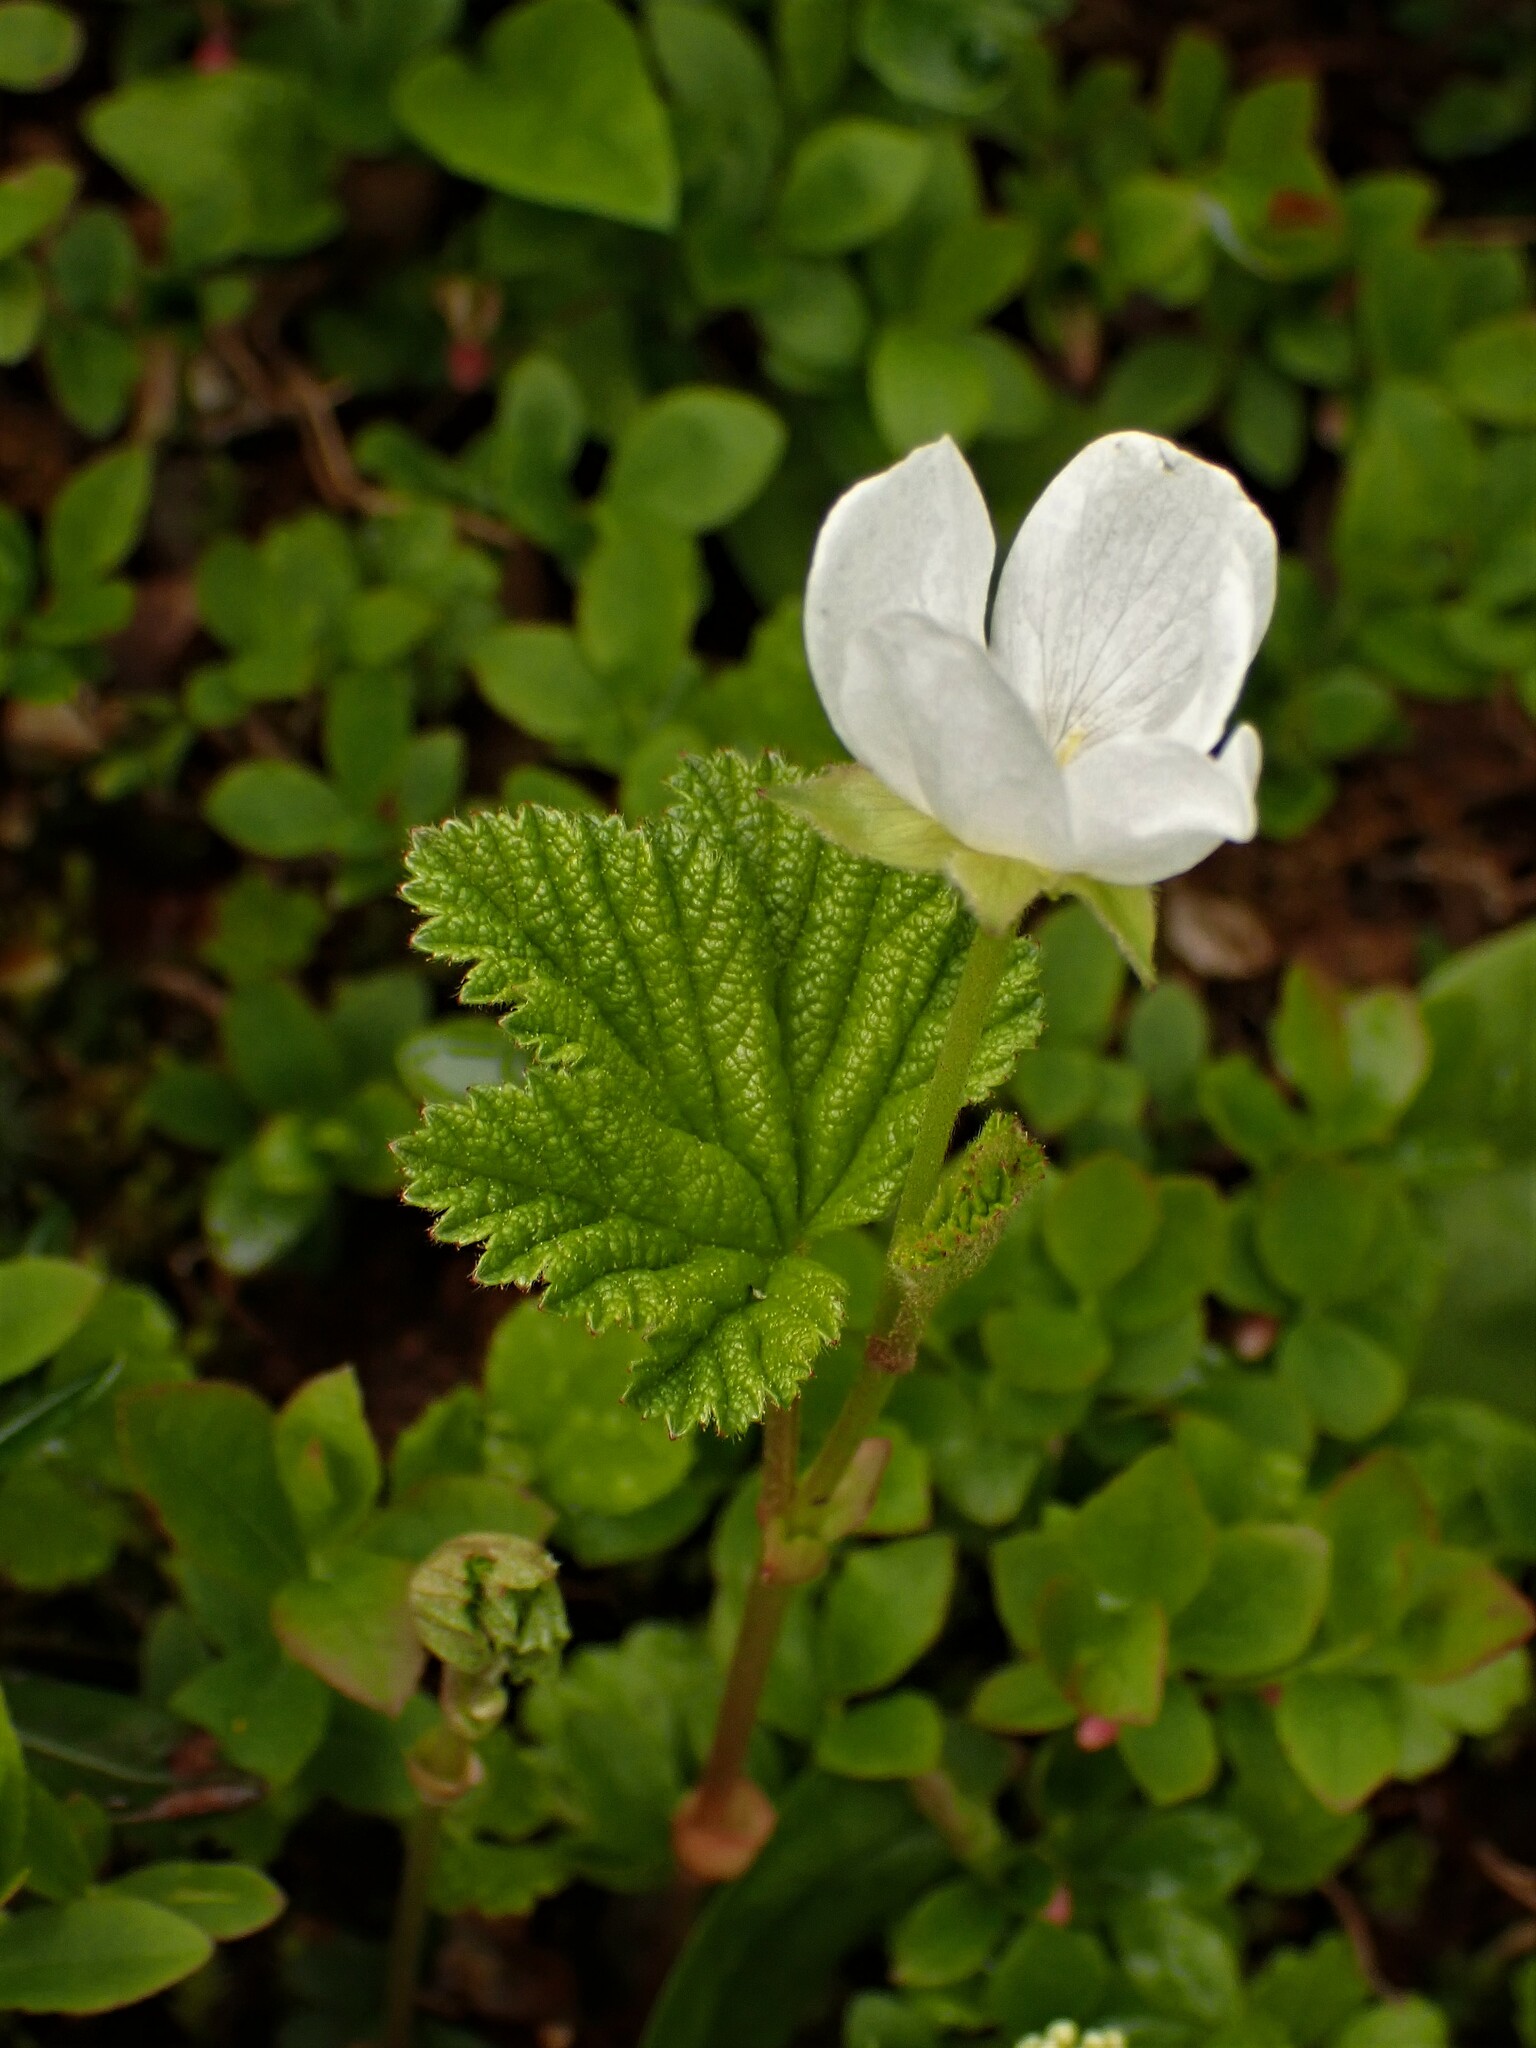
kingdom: Plantae
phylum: Tracheophyta
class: Magnoliopsida
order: Rosales
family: Rosaceae
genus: Rubus
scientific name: Rubus chamaemorus
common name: Cloudberry
